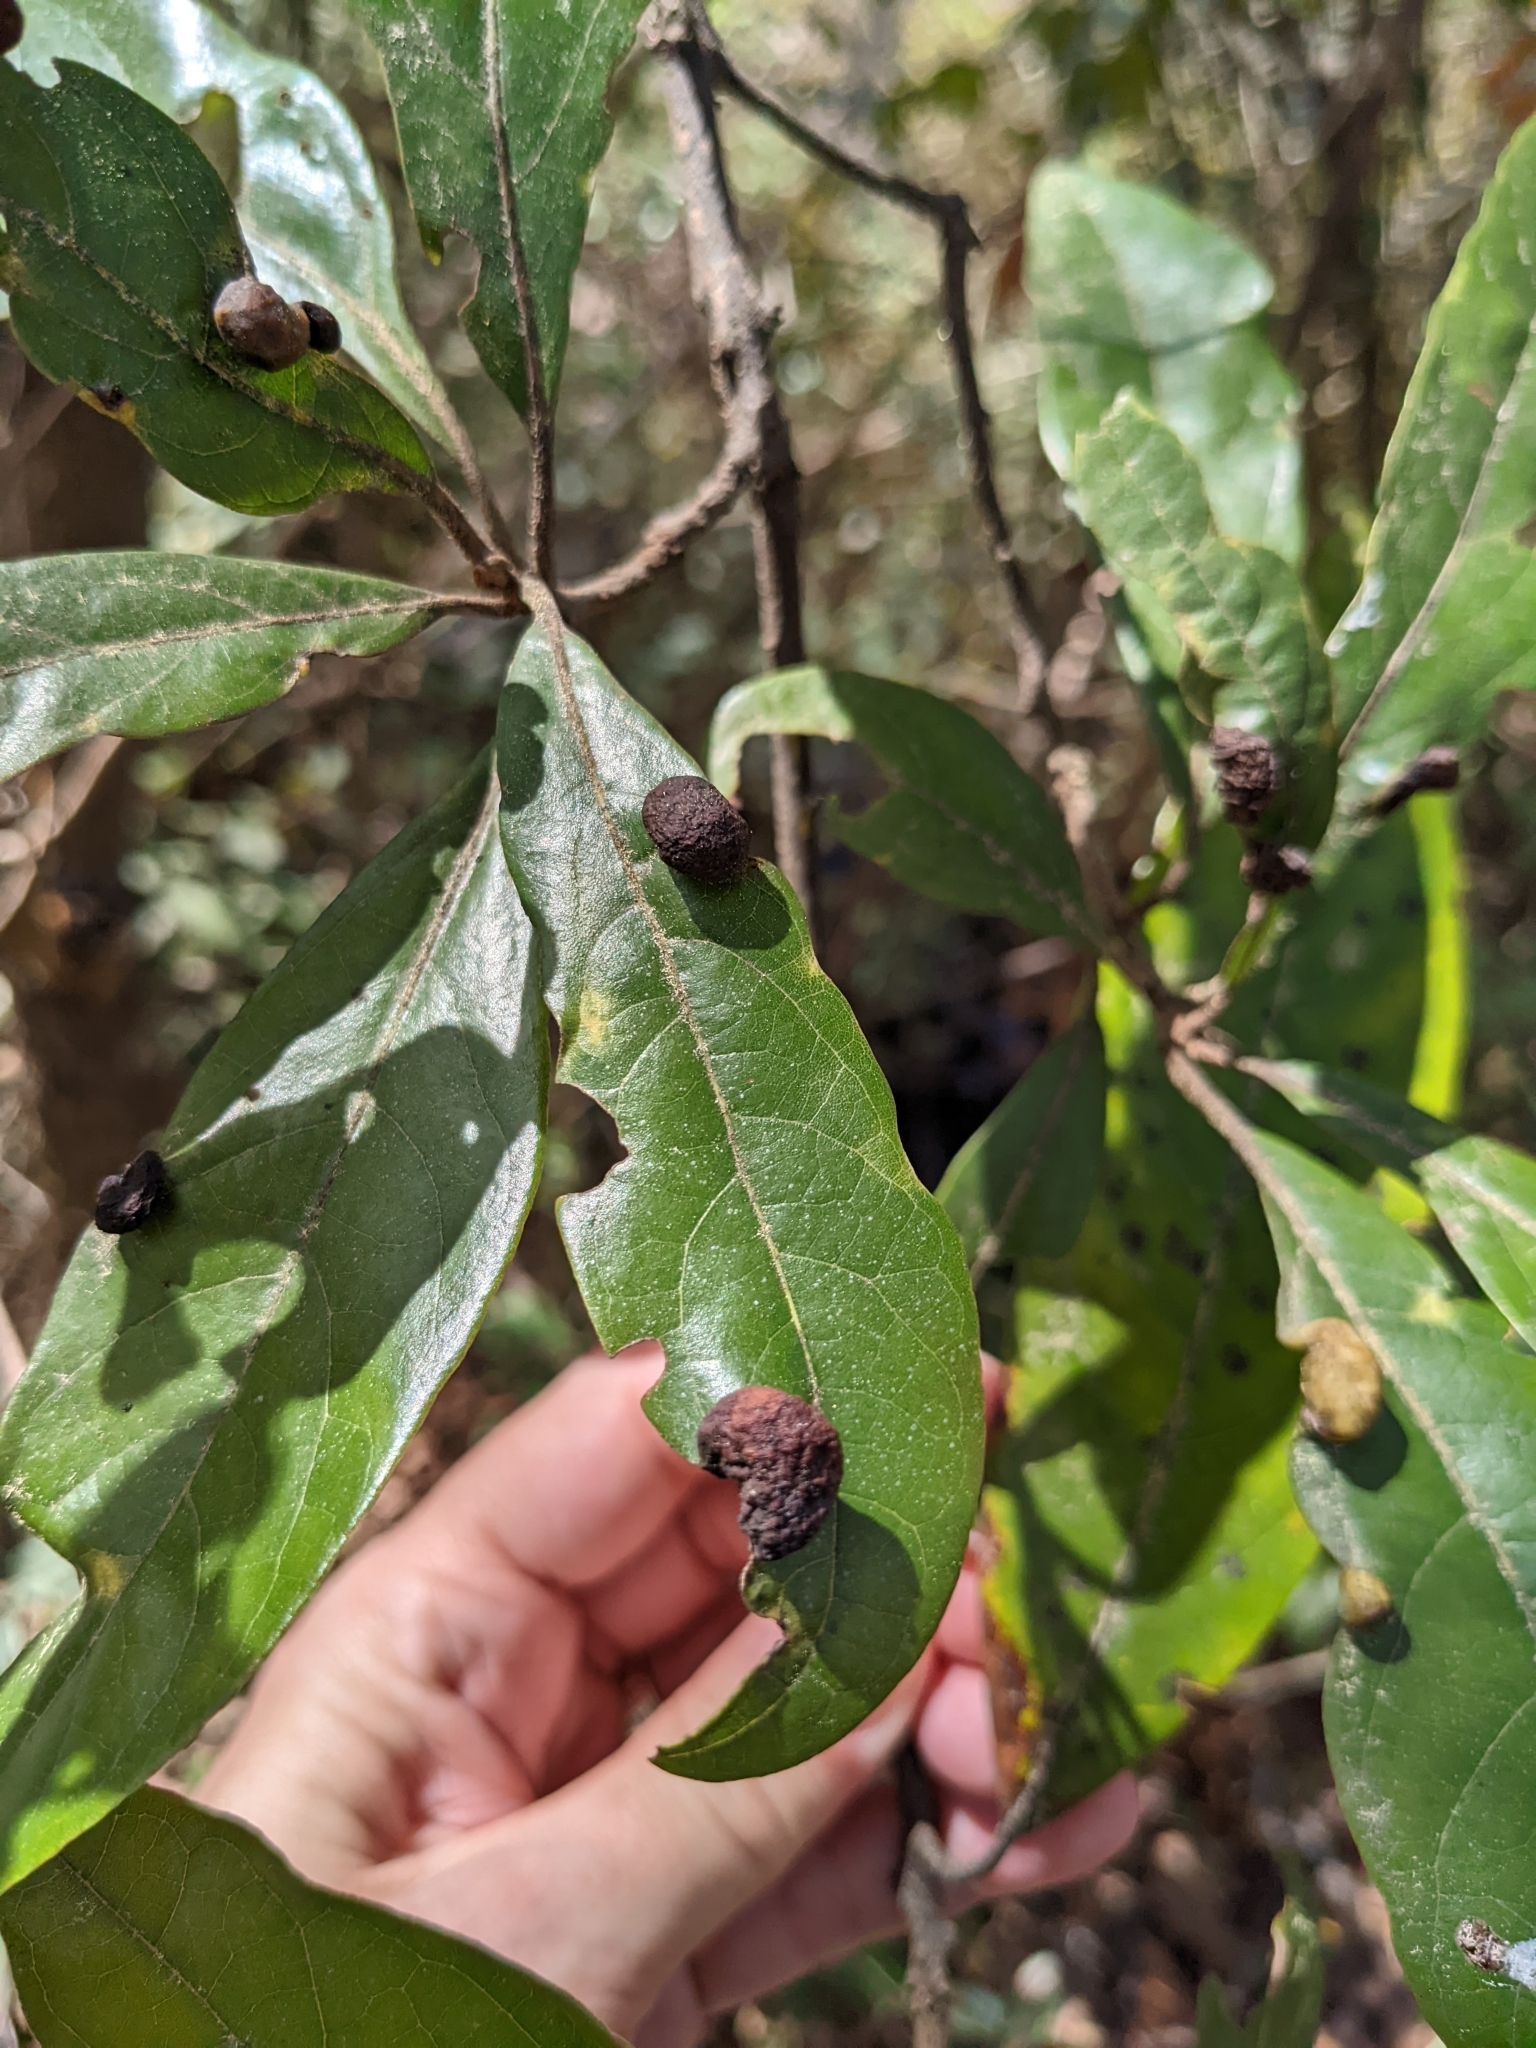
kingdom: Animalia
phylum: Arthropoda
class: Insecta
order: Hemiptera
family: Triozidae
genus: Trioza
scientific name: Trioza magnoliae
